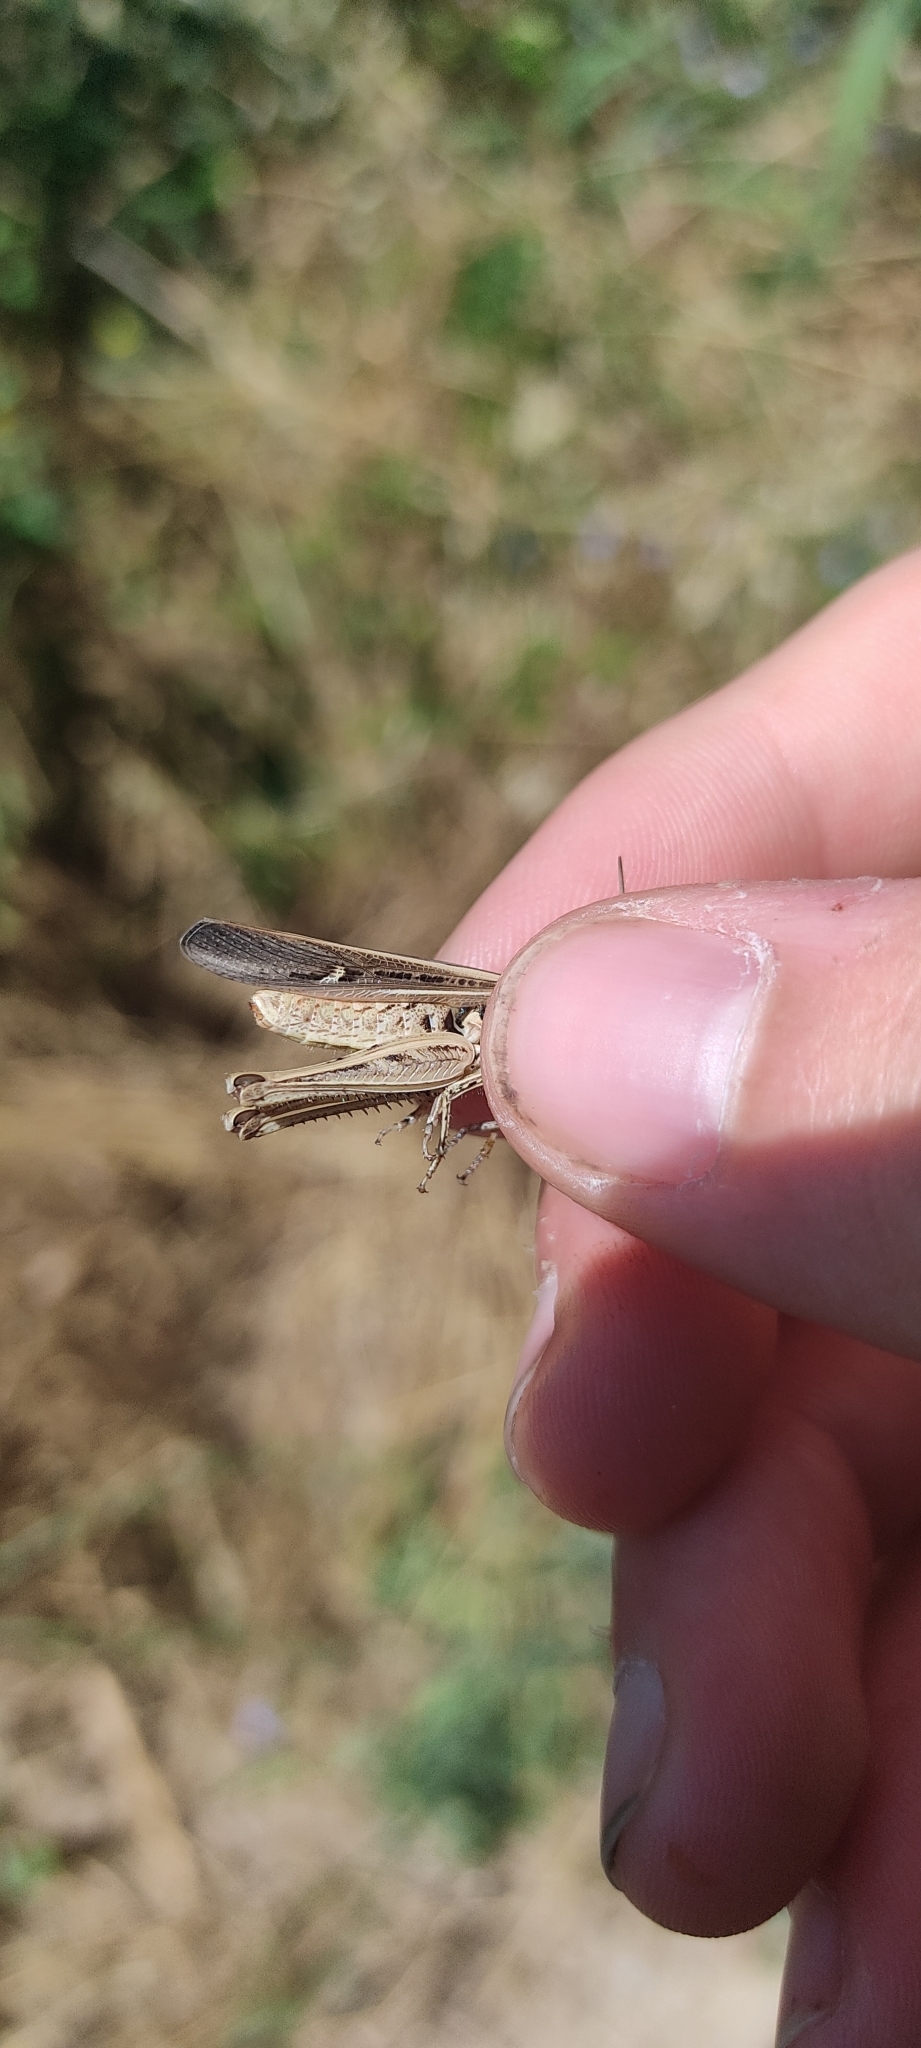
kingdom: Animalia
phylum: Arthropoda
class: Insecta
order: Orthoptera
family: Acrididae
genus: Chorthippus
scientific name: Chorthippus brunneus
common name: Field grasshopper
